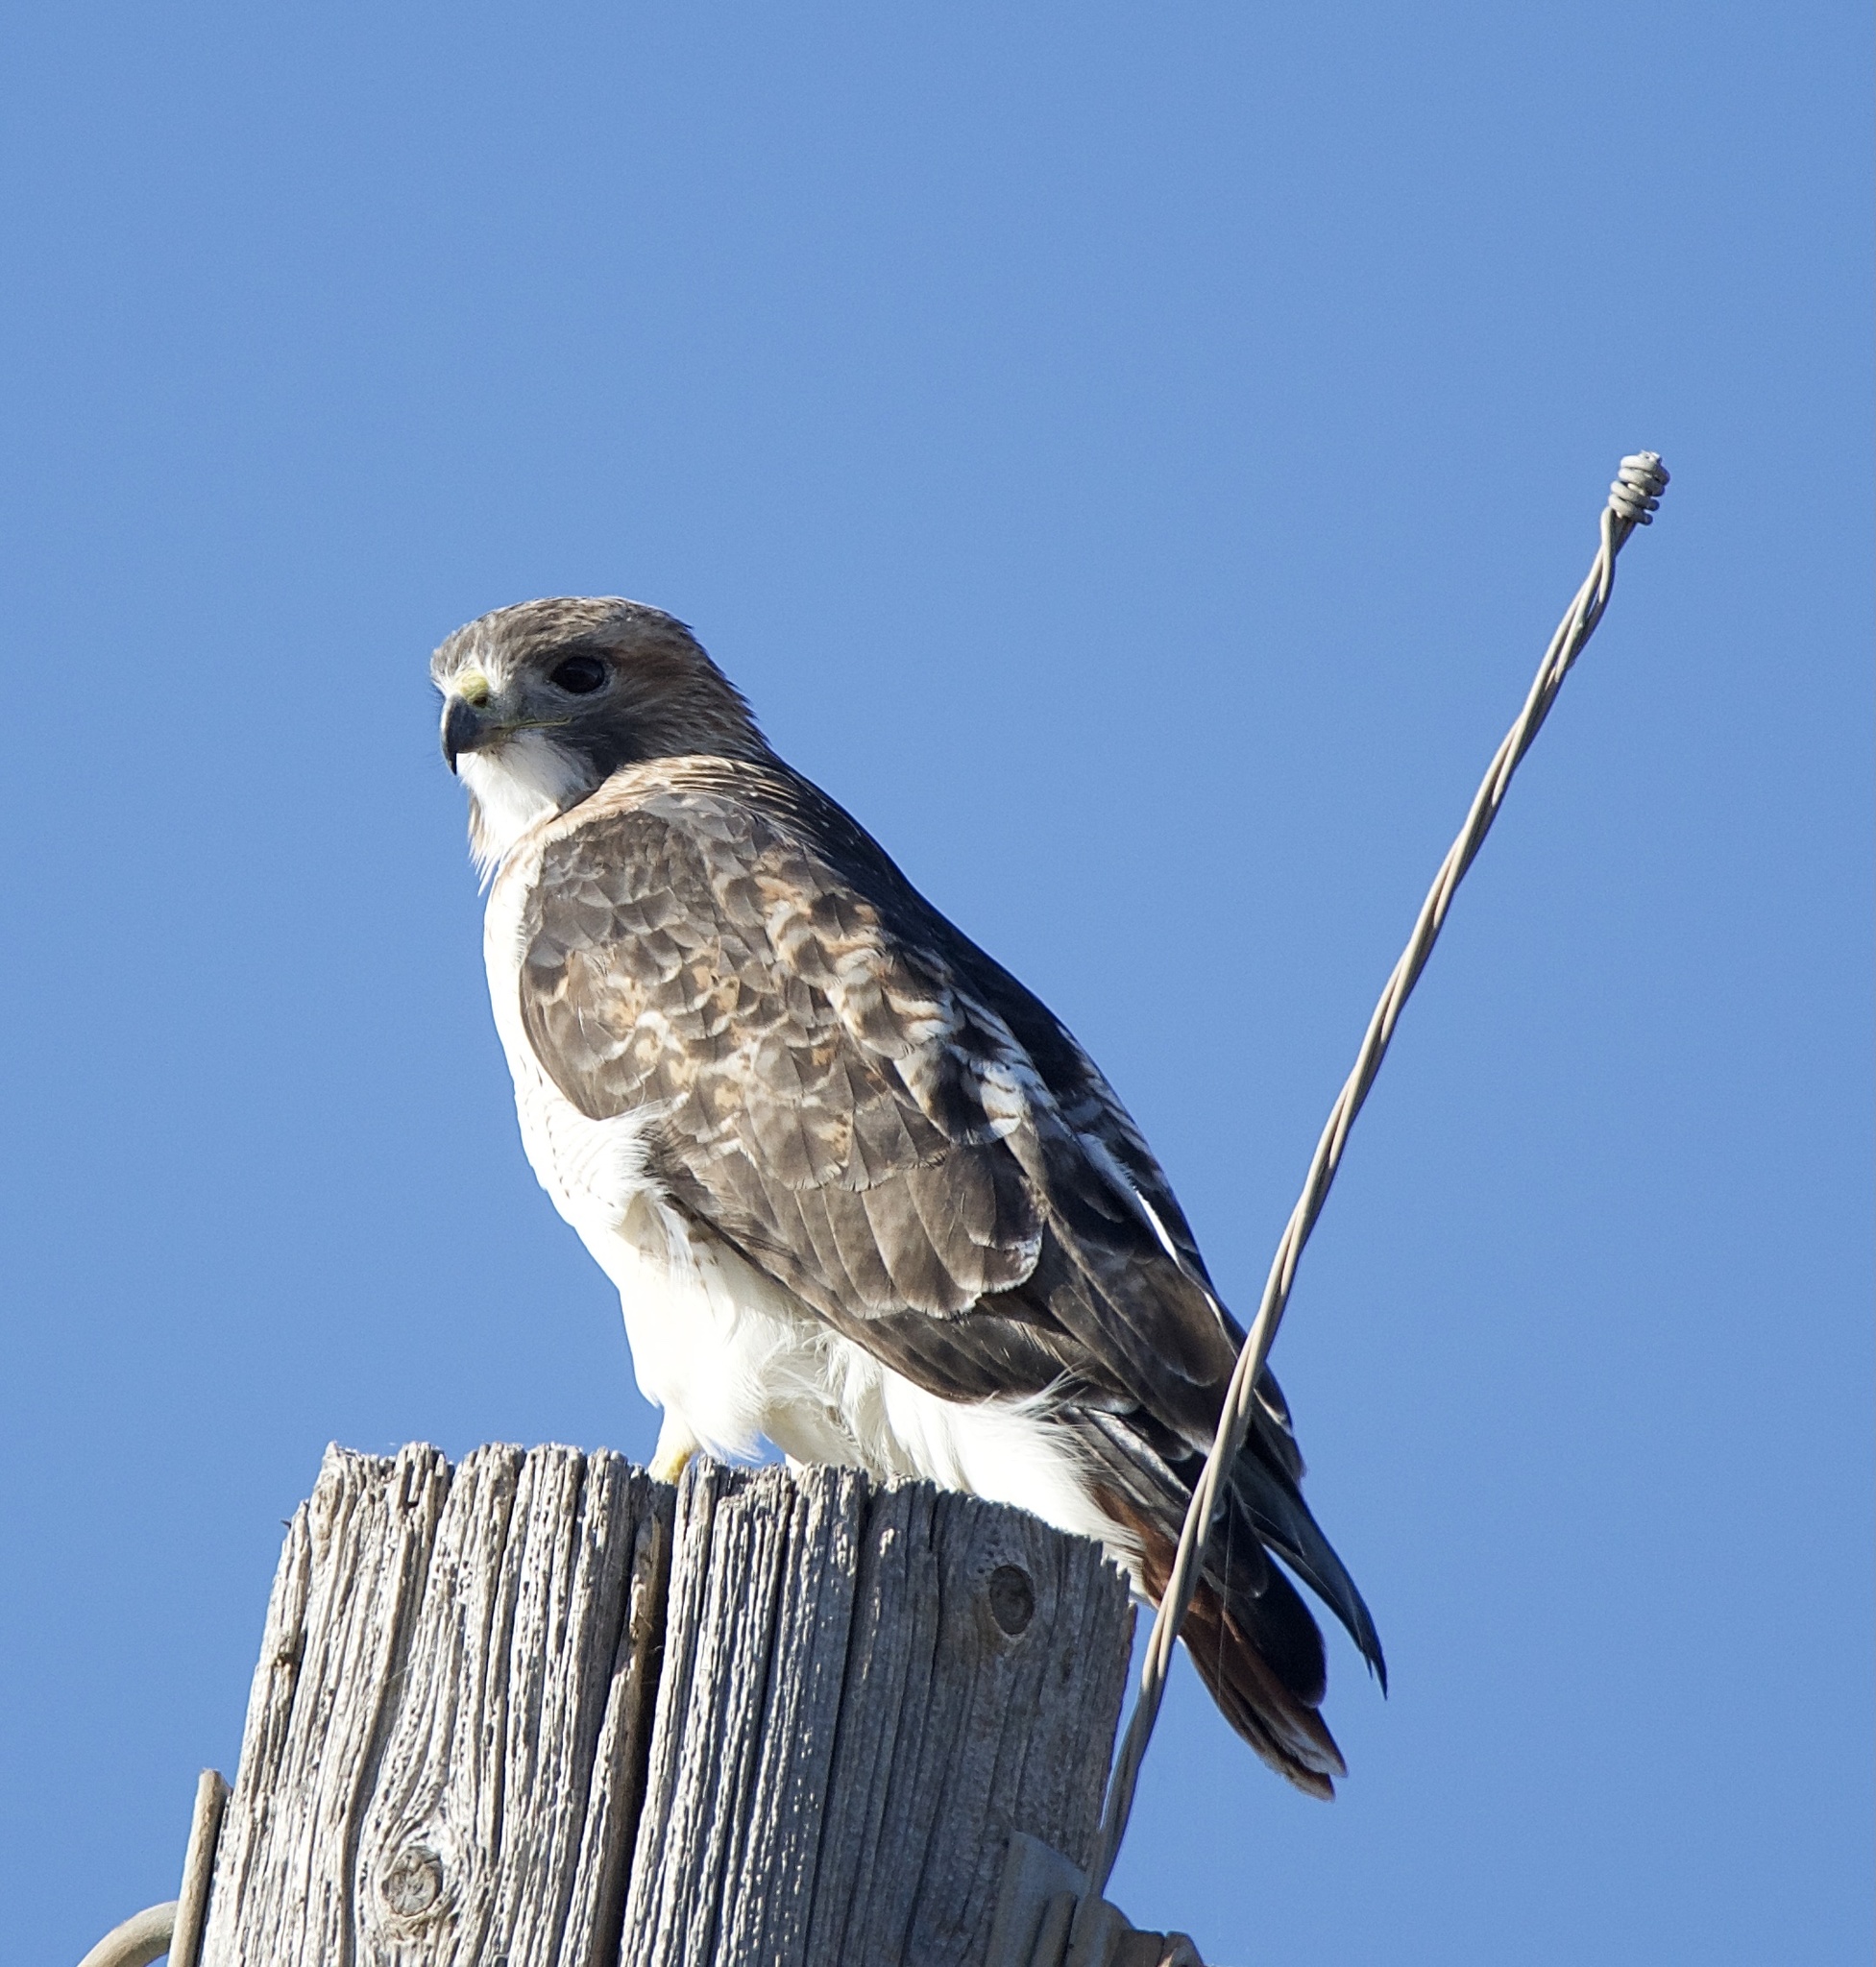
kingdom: Animalia
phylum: Chordata
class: Aves
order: Accipitriformes
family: Accipitridae
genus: Buteo
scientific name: Buteo jamaicensis
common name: Red-tailed hawk
